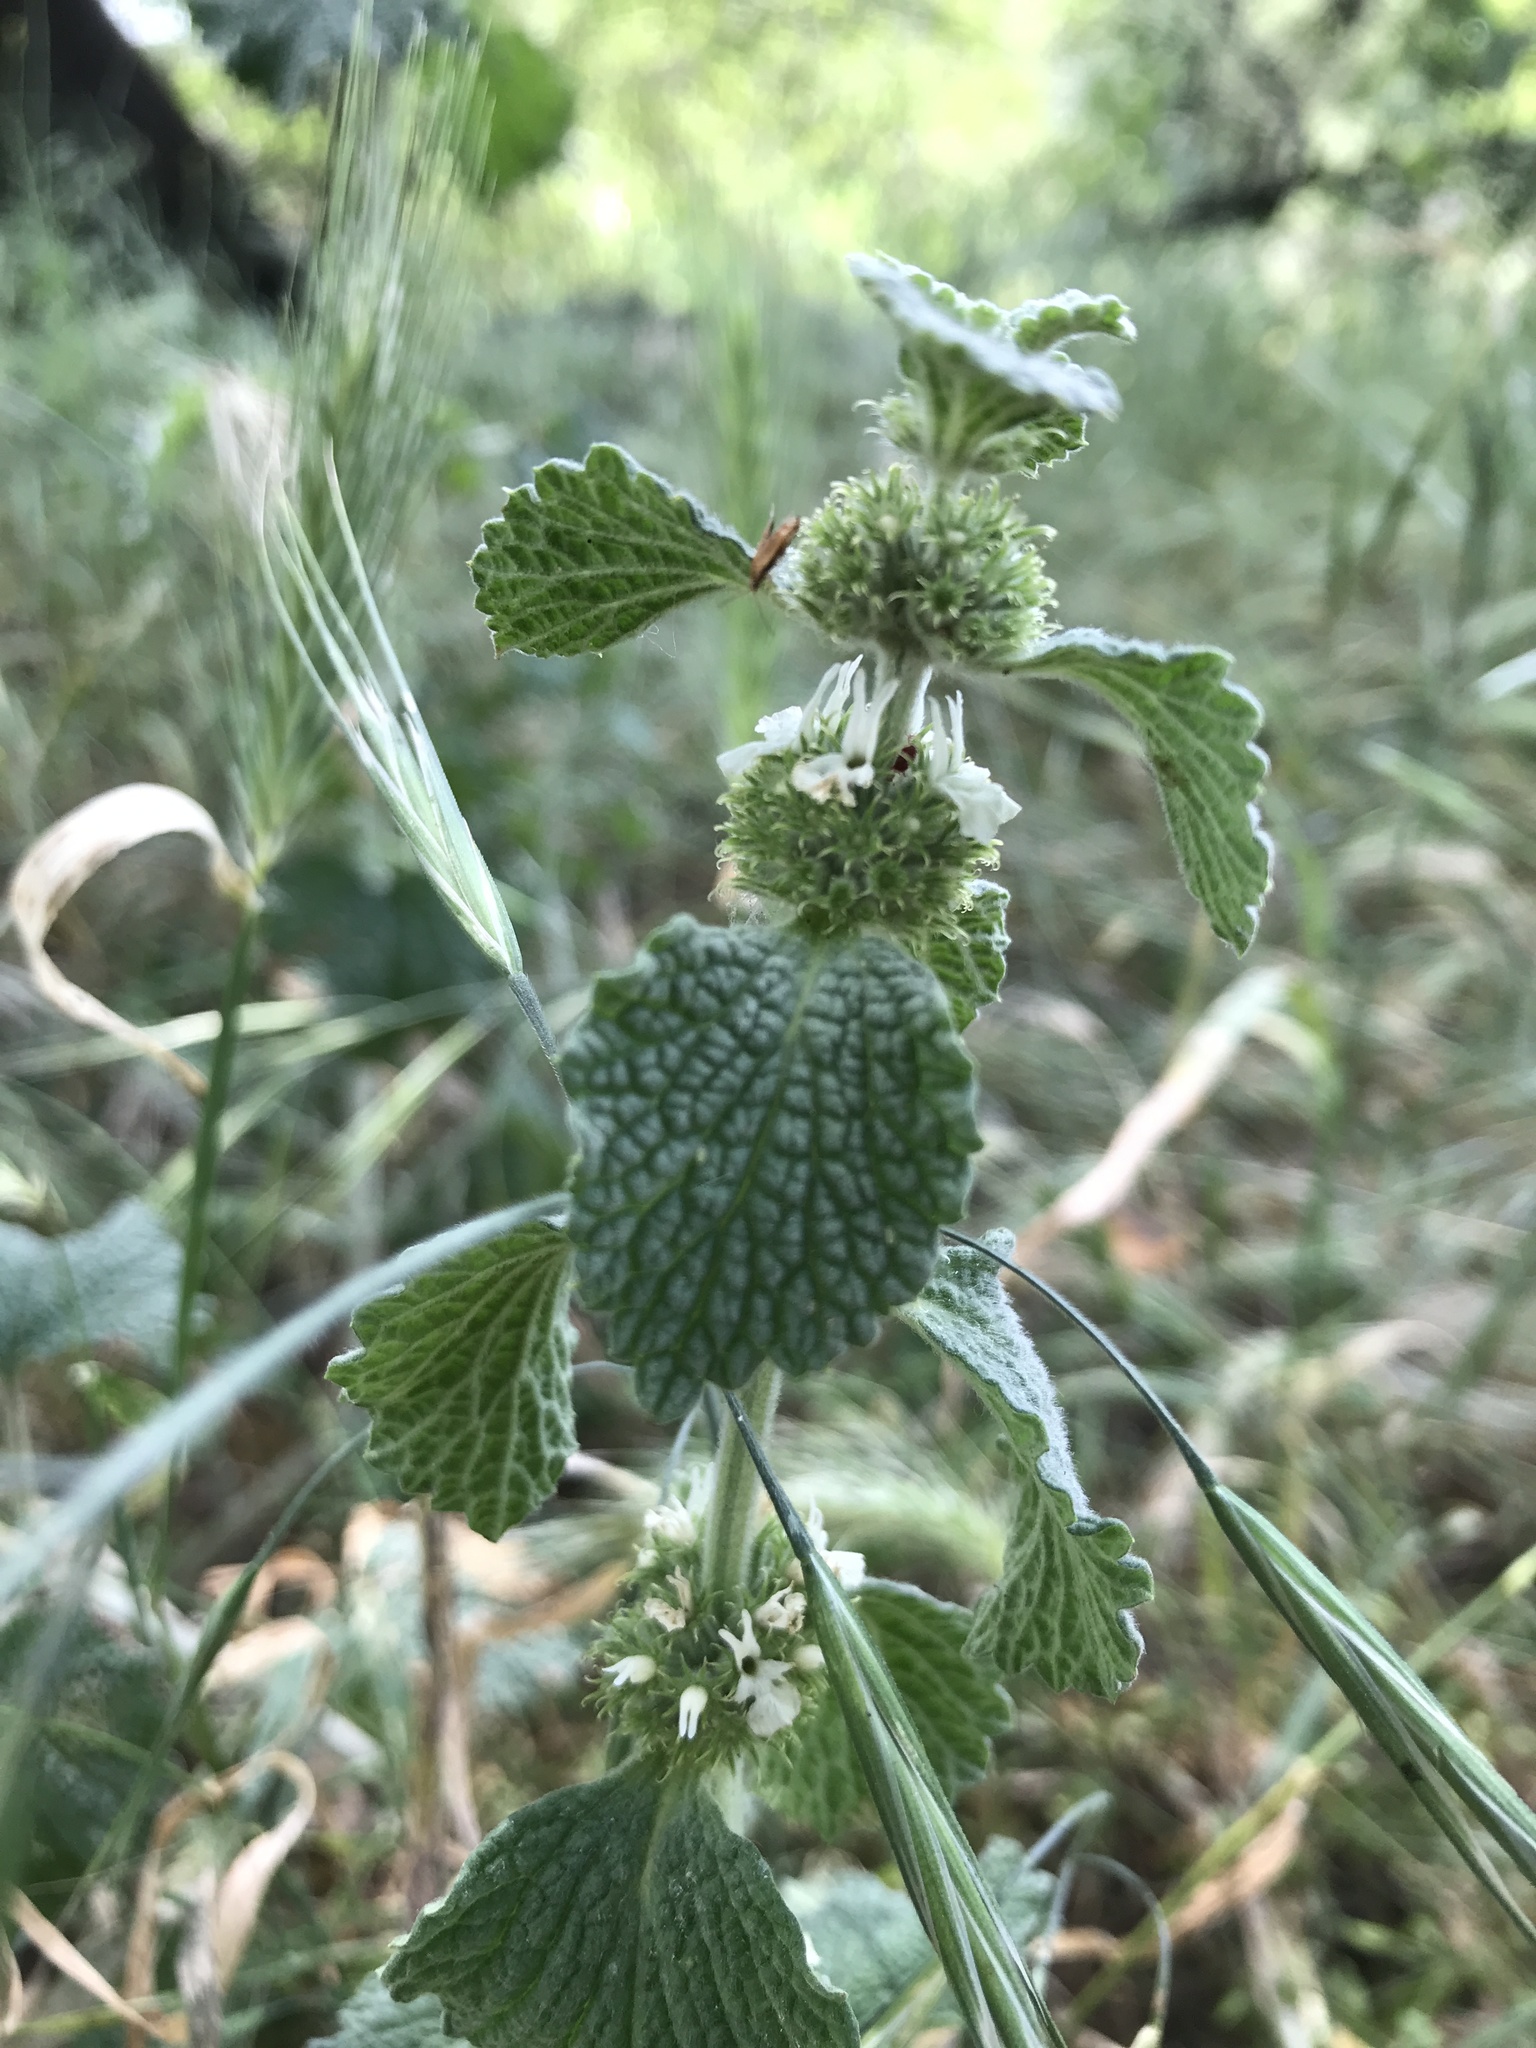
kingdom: Plantae
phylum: Tracheophyta
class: Magnoliopsida
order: Lamiales
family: Lamiaceae
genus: Marrubium
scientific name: Marrubium vulgare
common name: Horehound
